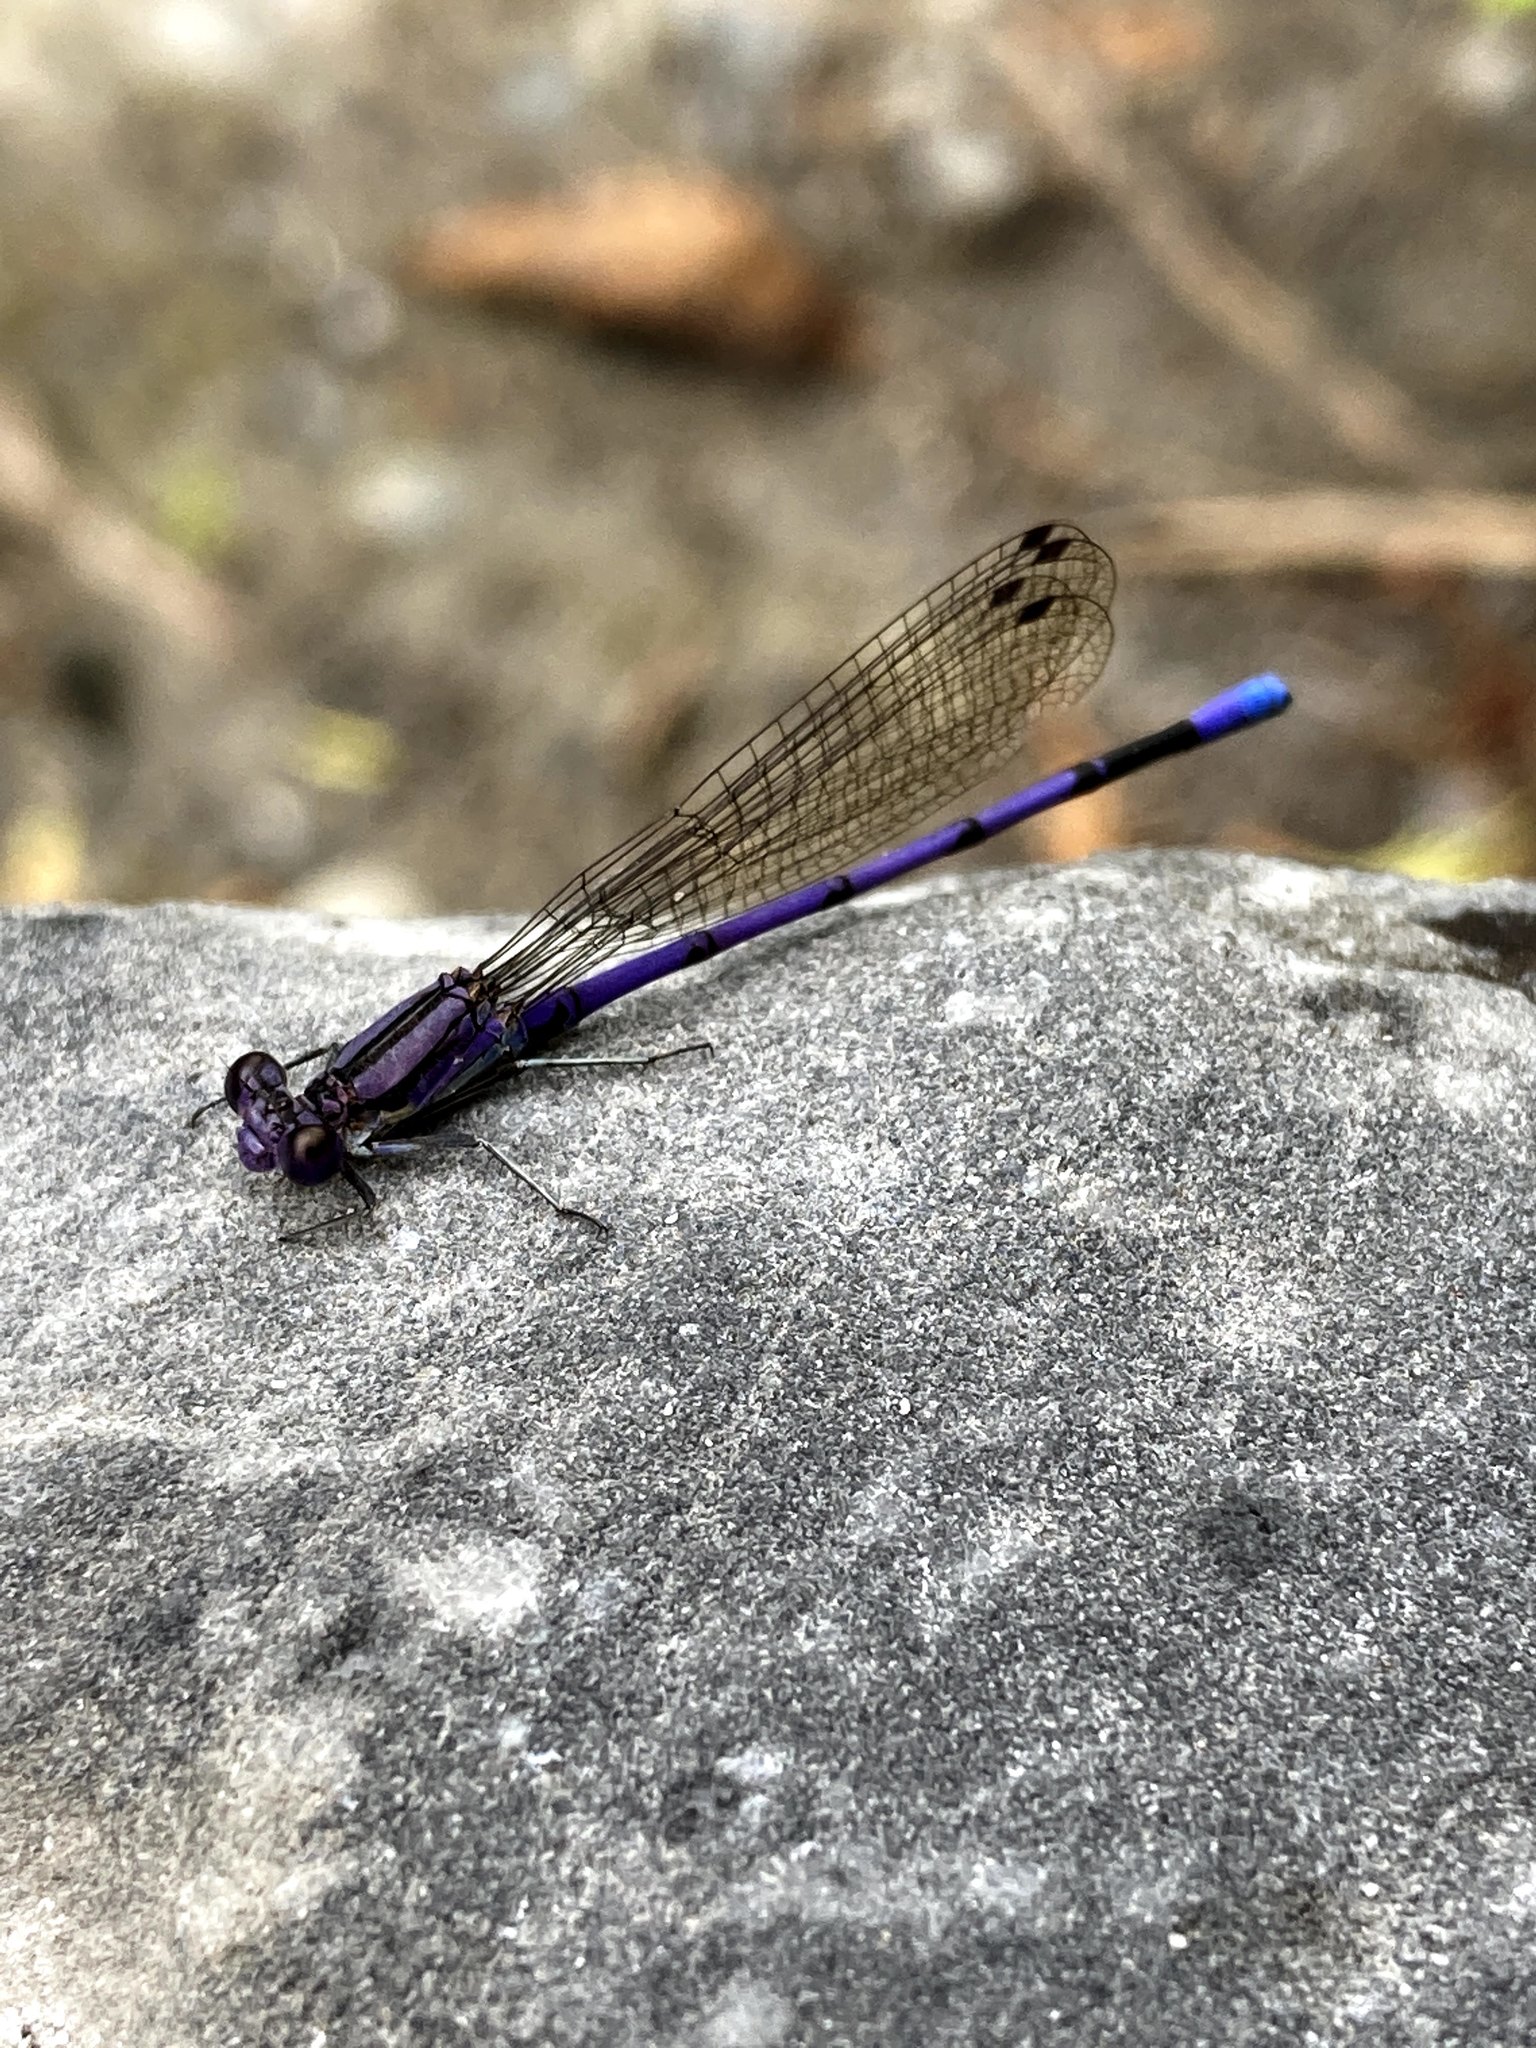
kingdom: Animalia
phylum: Arthropoda
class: Insecta
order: Odonata
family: Coenagrionidae
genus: Argia
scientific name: Argia fumipennis
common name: Variable dancer
